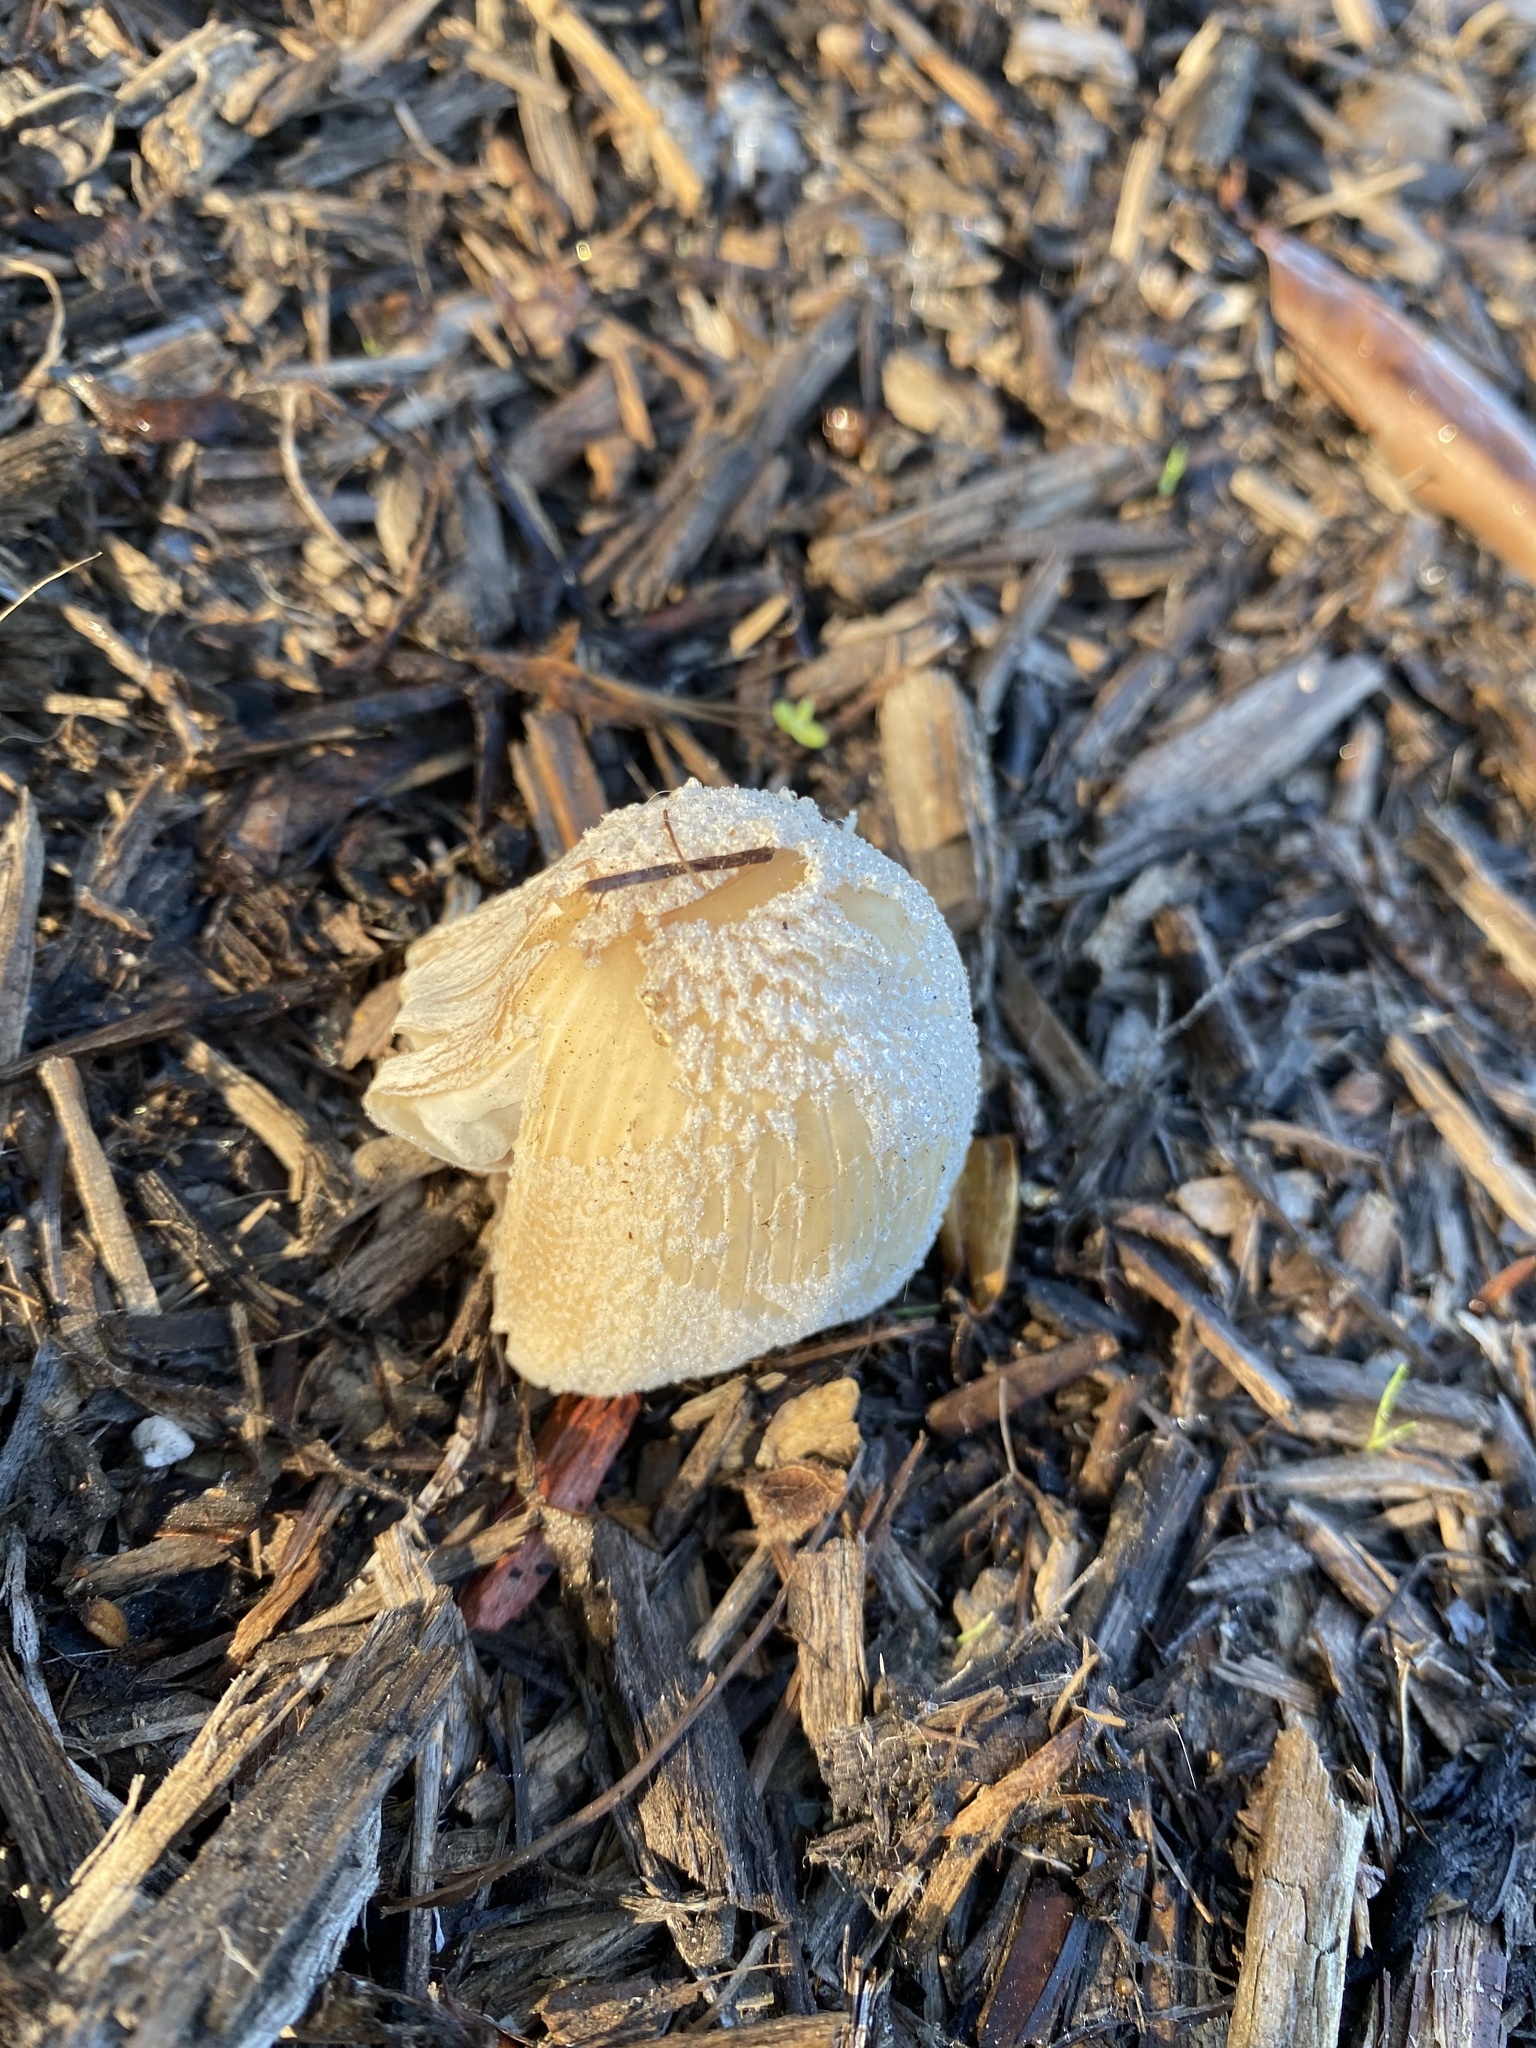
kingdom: Fungi
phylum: Basidiomycota
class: Agaricomycetes
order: Agaricales
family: Psathyrellaceae
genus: Coprinellus
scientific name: Coprinellus flocculosus
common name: Flocculose inkcap
